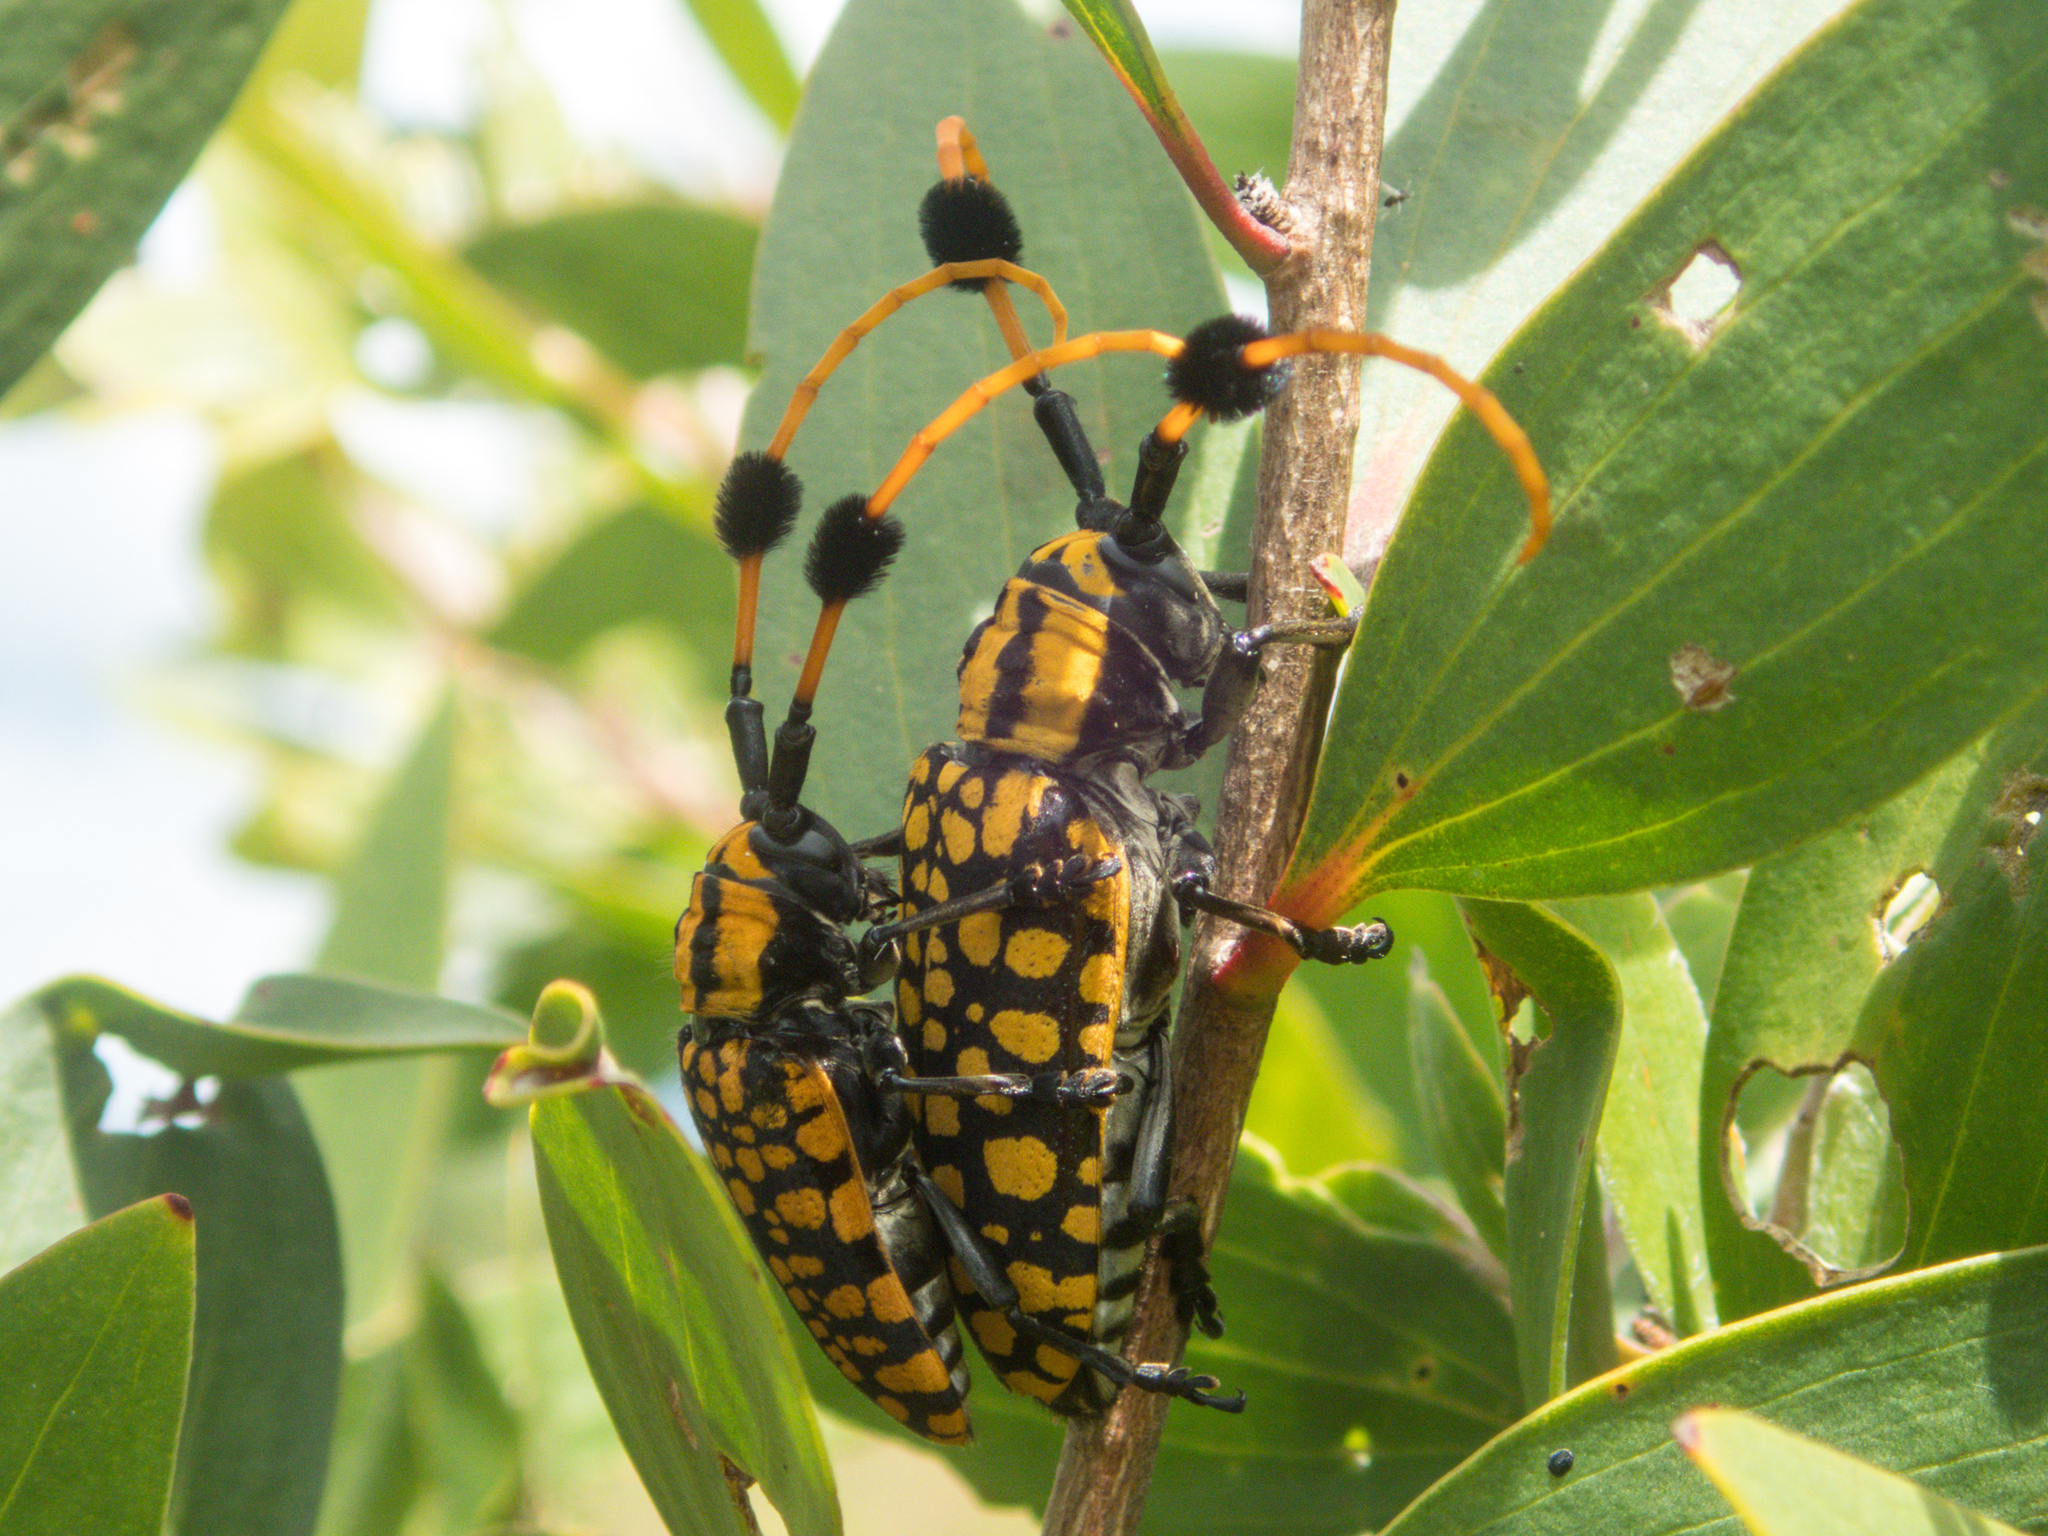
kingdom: Animalia
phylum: Arthropoda
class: Insecta
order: Coleoptera
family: Cerambycidae
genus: Aristobia
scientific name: Aristobia approximator
